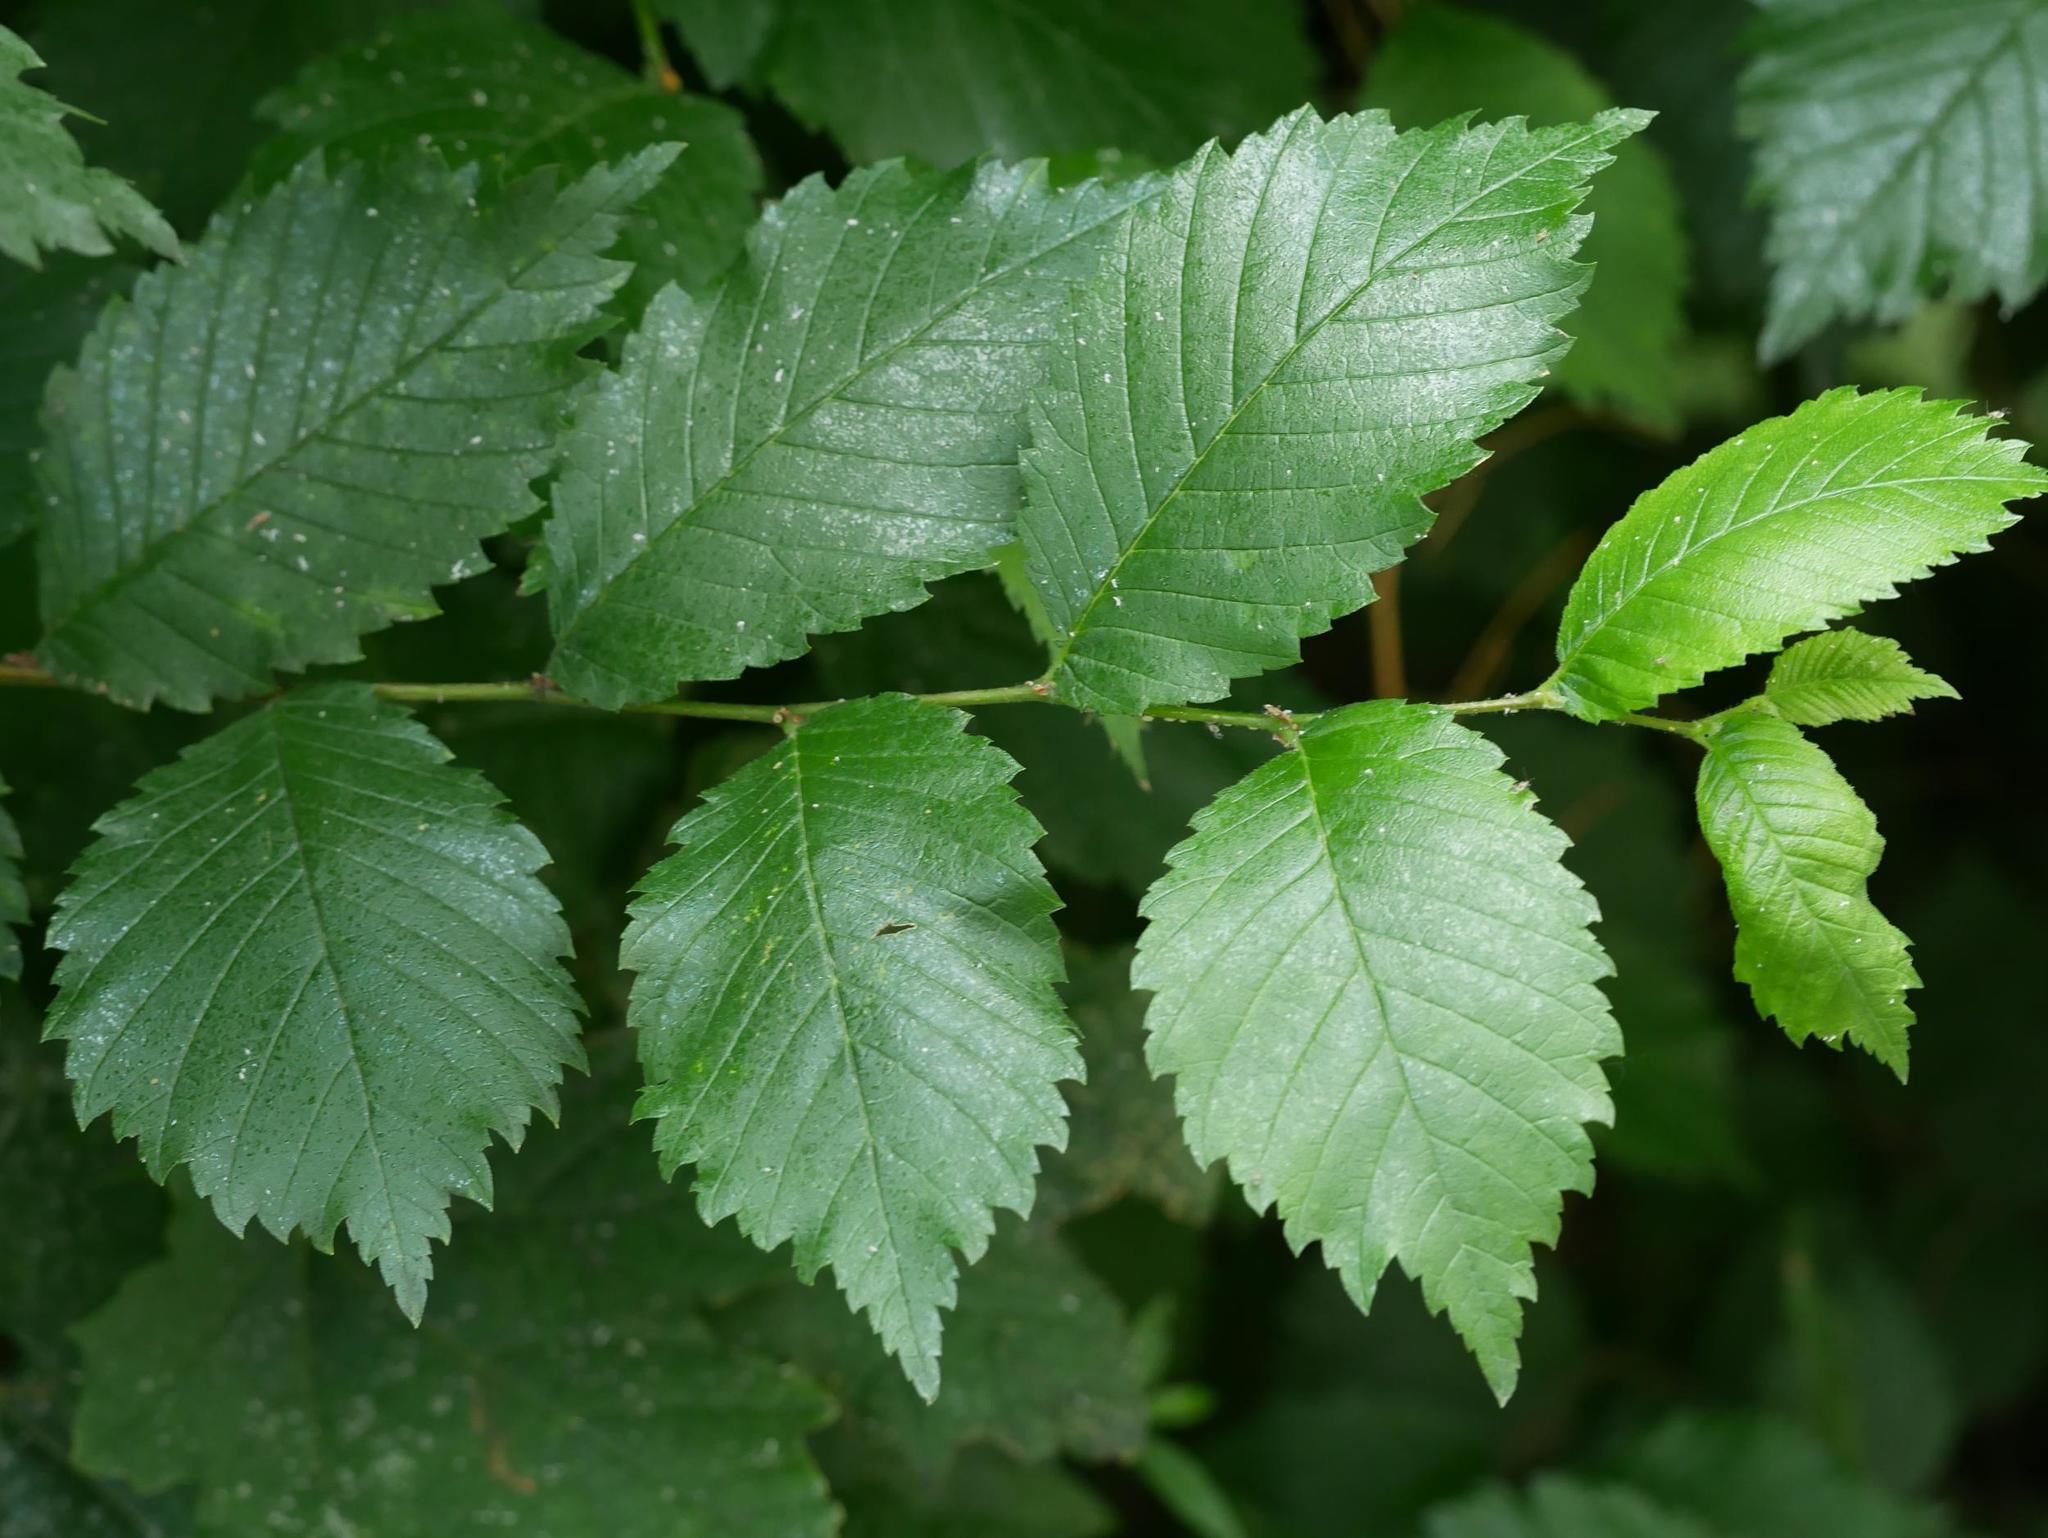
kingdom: Plantae
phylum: Tracheophyta
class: Magnoliopsida
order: Rosales
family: Ulmaceae
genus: Ulmus
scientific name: Ulmus laevis
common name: European white-elm
